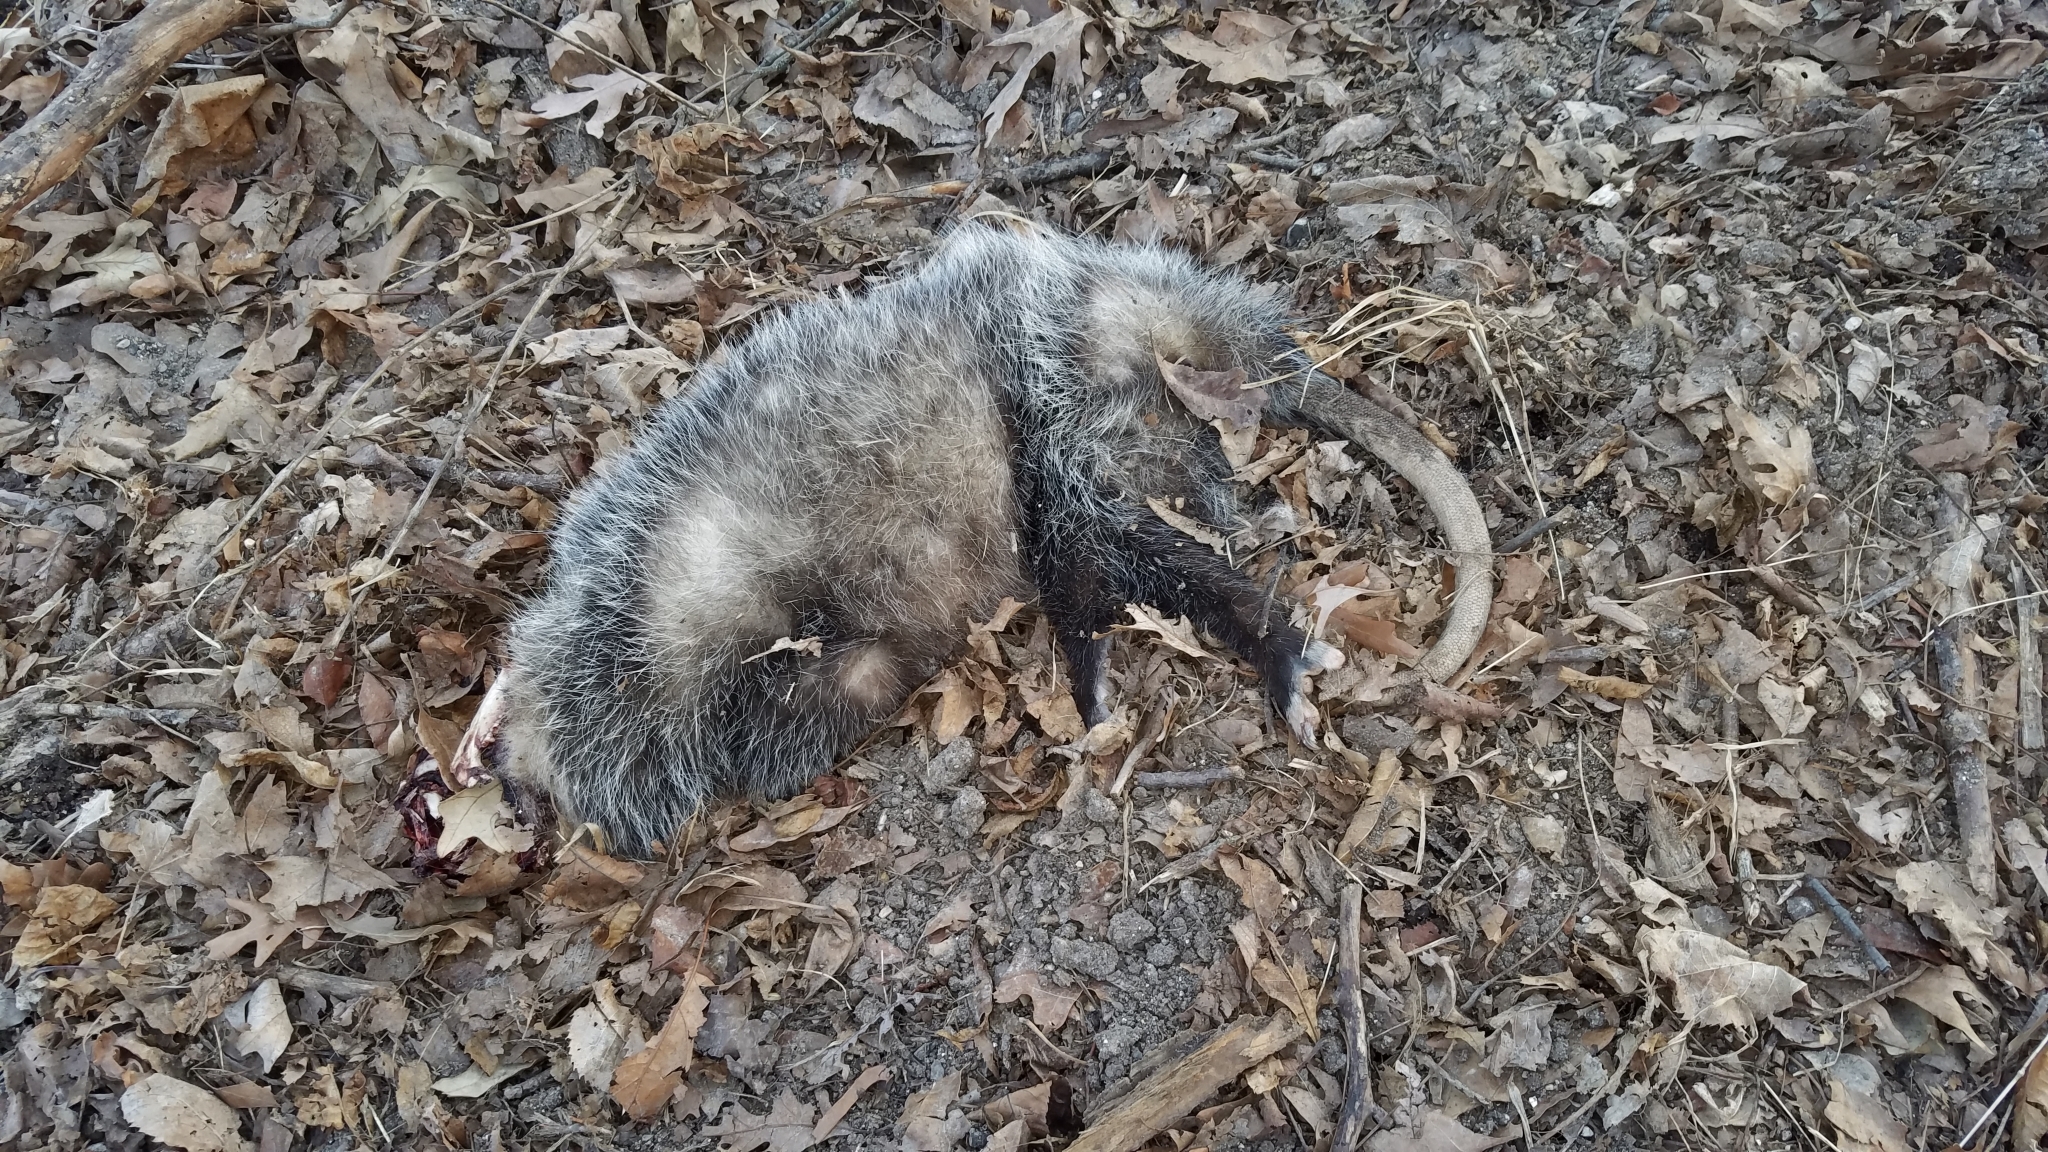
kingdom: Animalia
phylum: Chordata
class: Mammalia
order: Didelphimorphia
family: Didelphidae
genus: Didelphis
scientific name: Didelphis virginiana
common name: Virginia opossum
